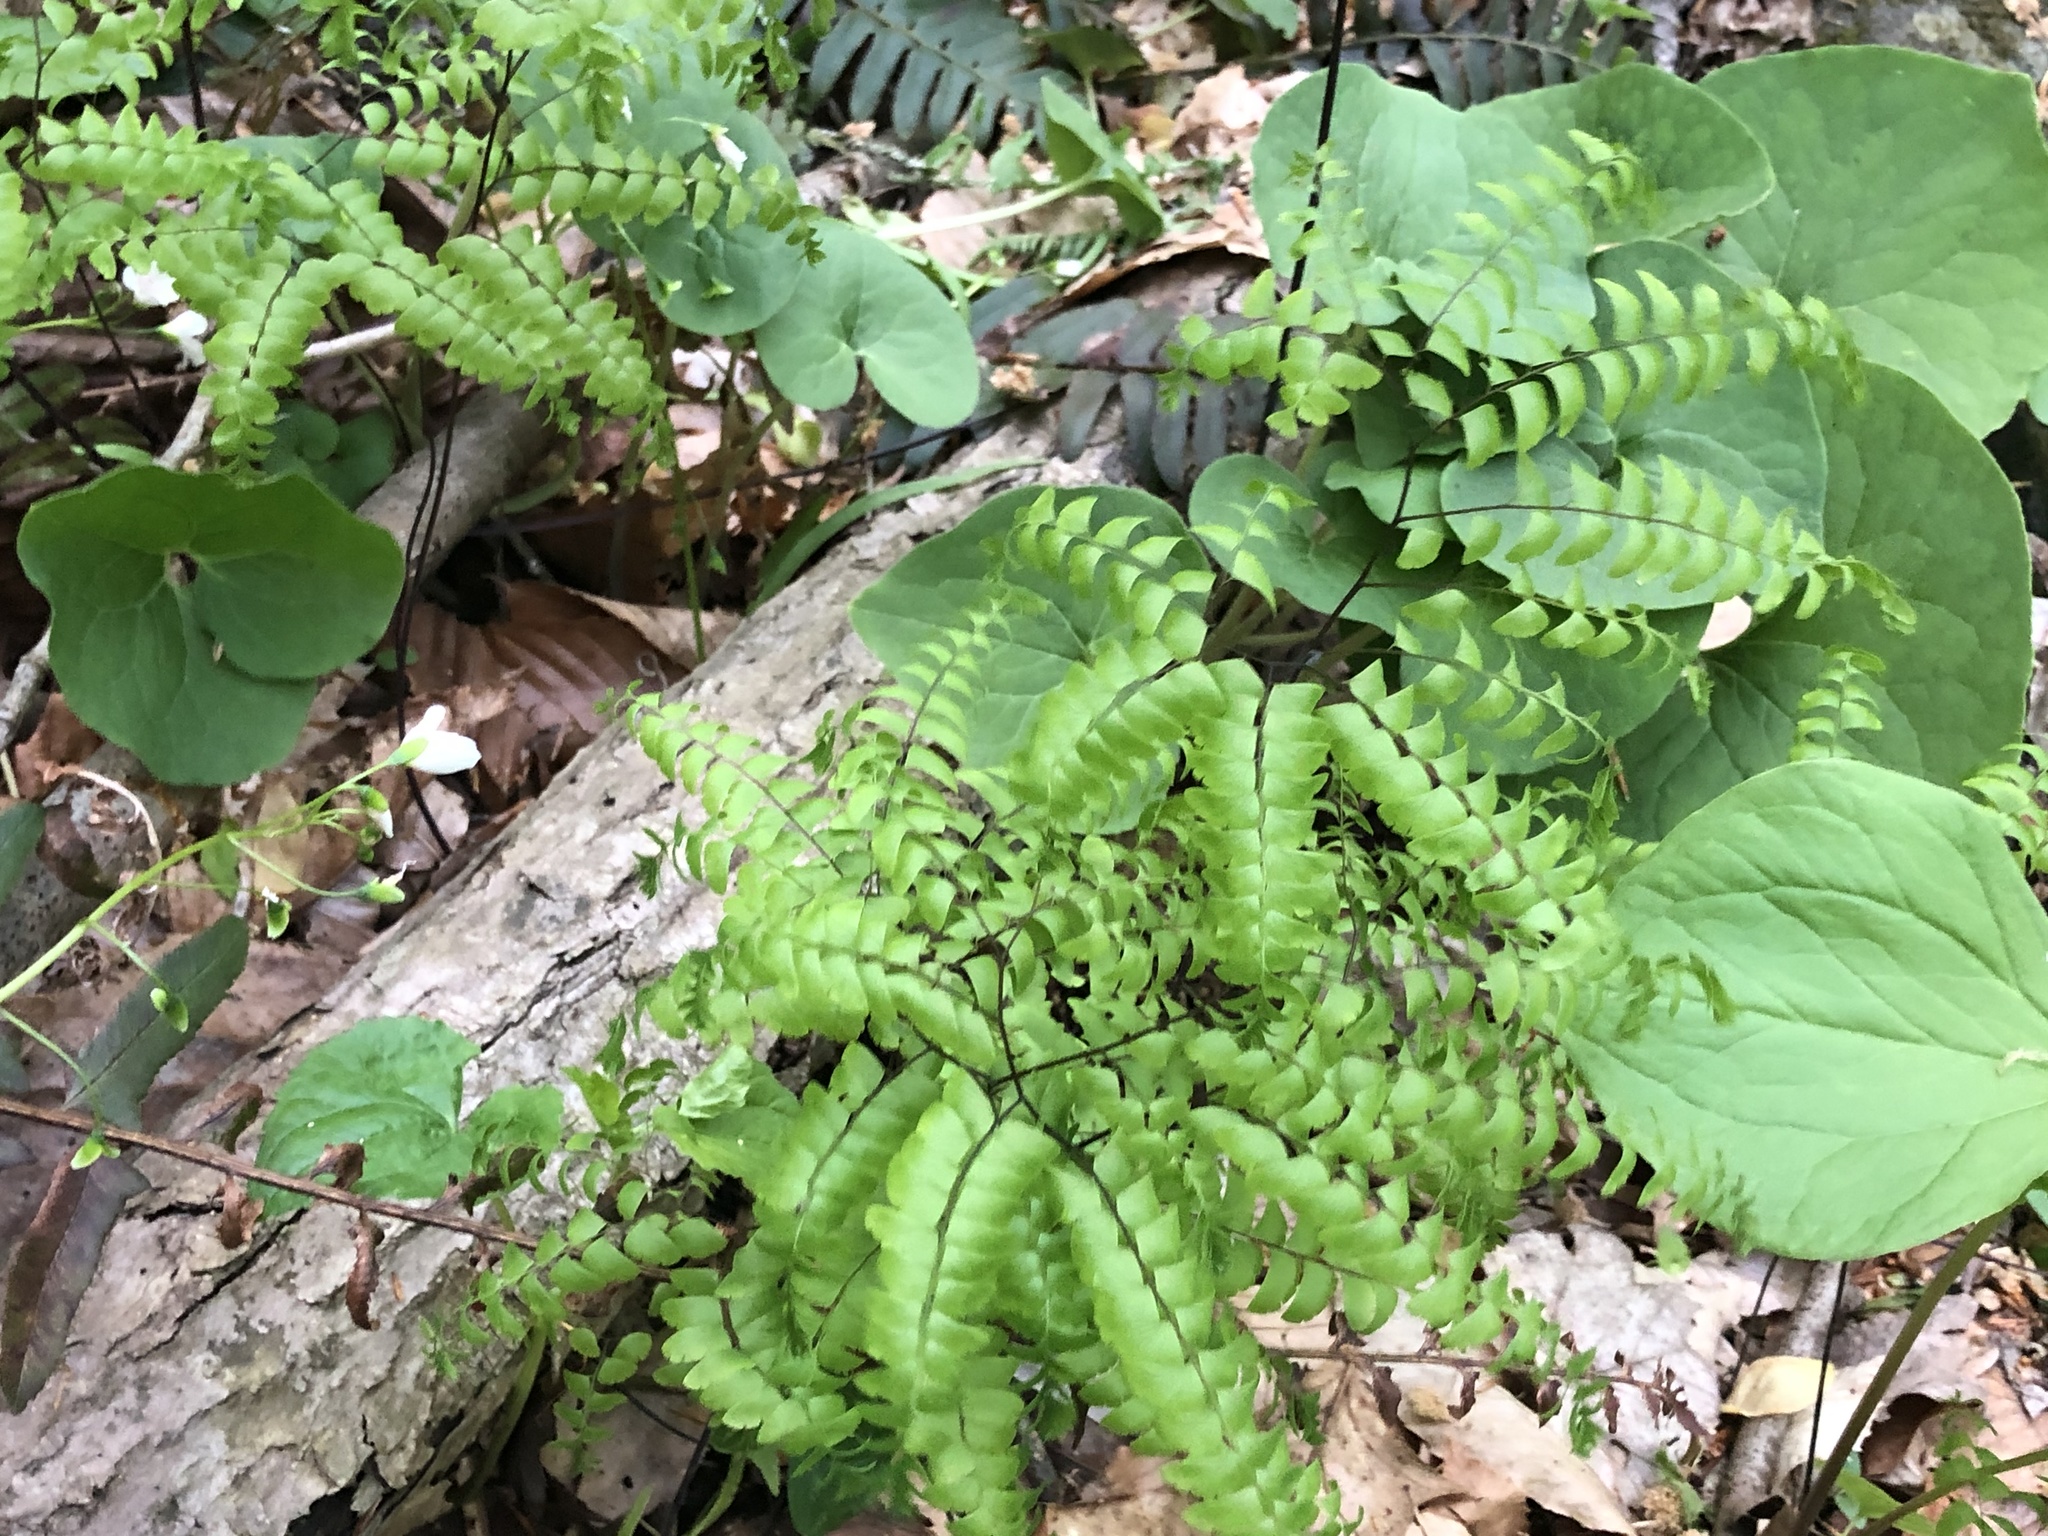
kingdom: Plantae
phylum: Tracheophyta
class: Polypodiopsida
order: Polypodiales
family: Pteridaceae
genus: Adiantum
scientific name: Adiantum pedatum
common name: Five-finger fern
